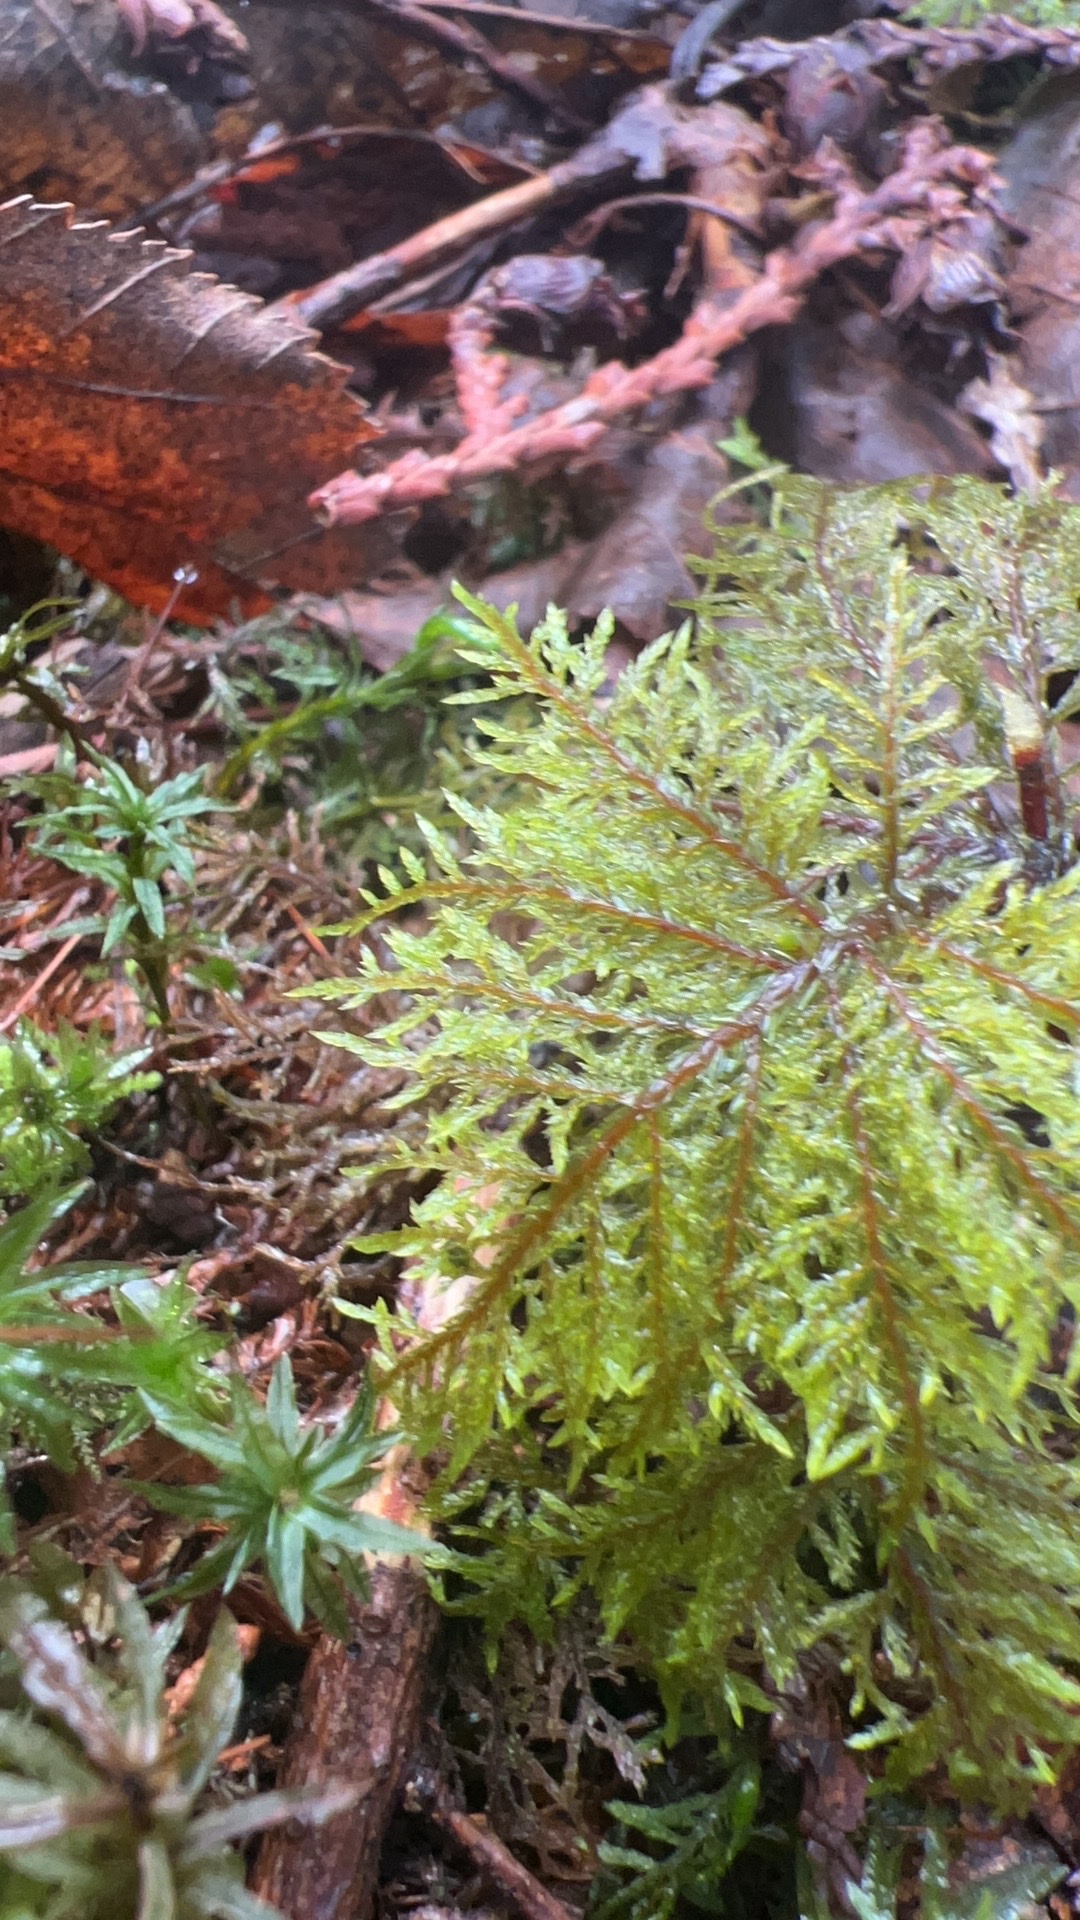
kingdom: Plantae
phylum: Bryophyta
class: Bryopsida
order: Hypnales
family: Hylocomiaceae
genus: Hylocomium
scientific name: Hylocomium splendens
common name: Stairstep moss
